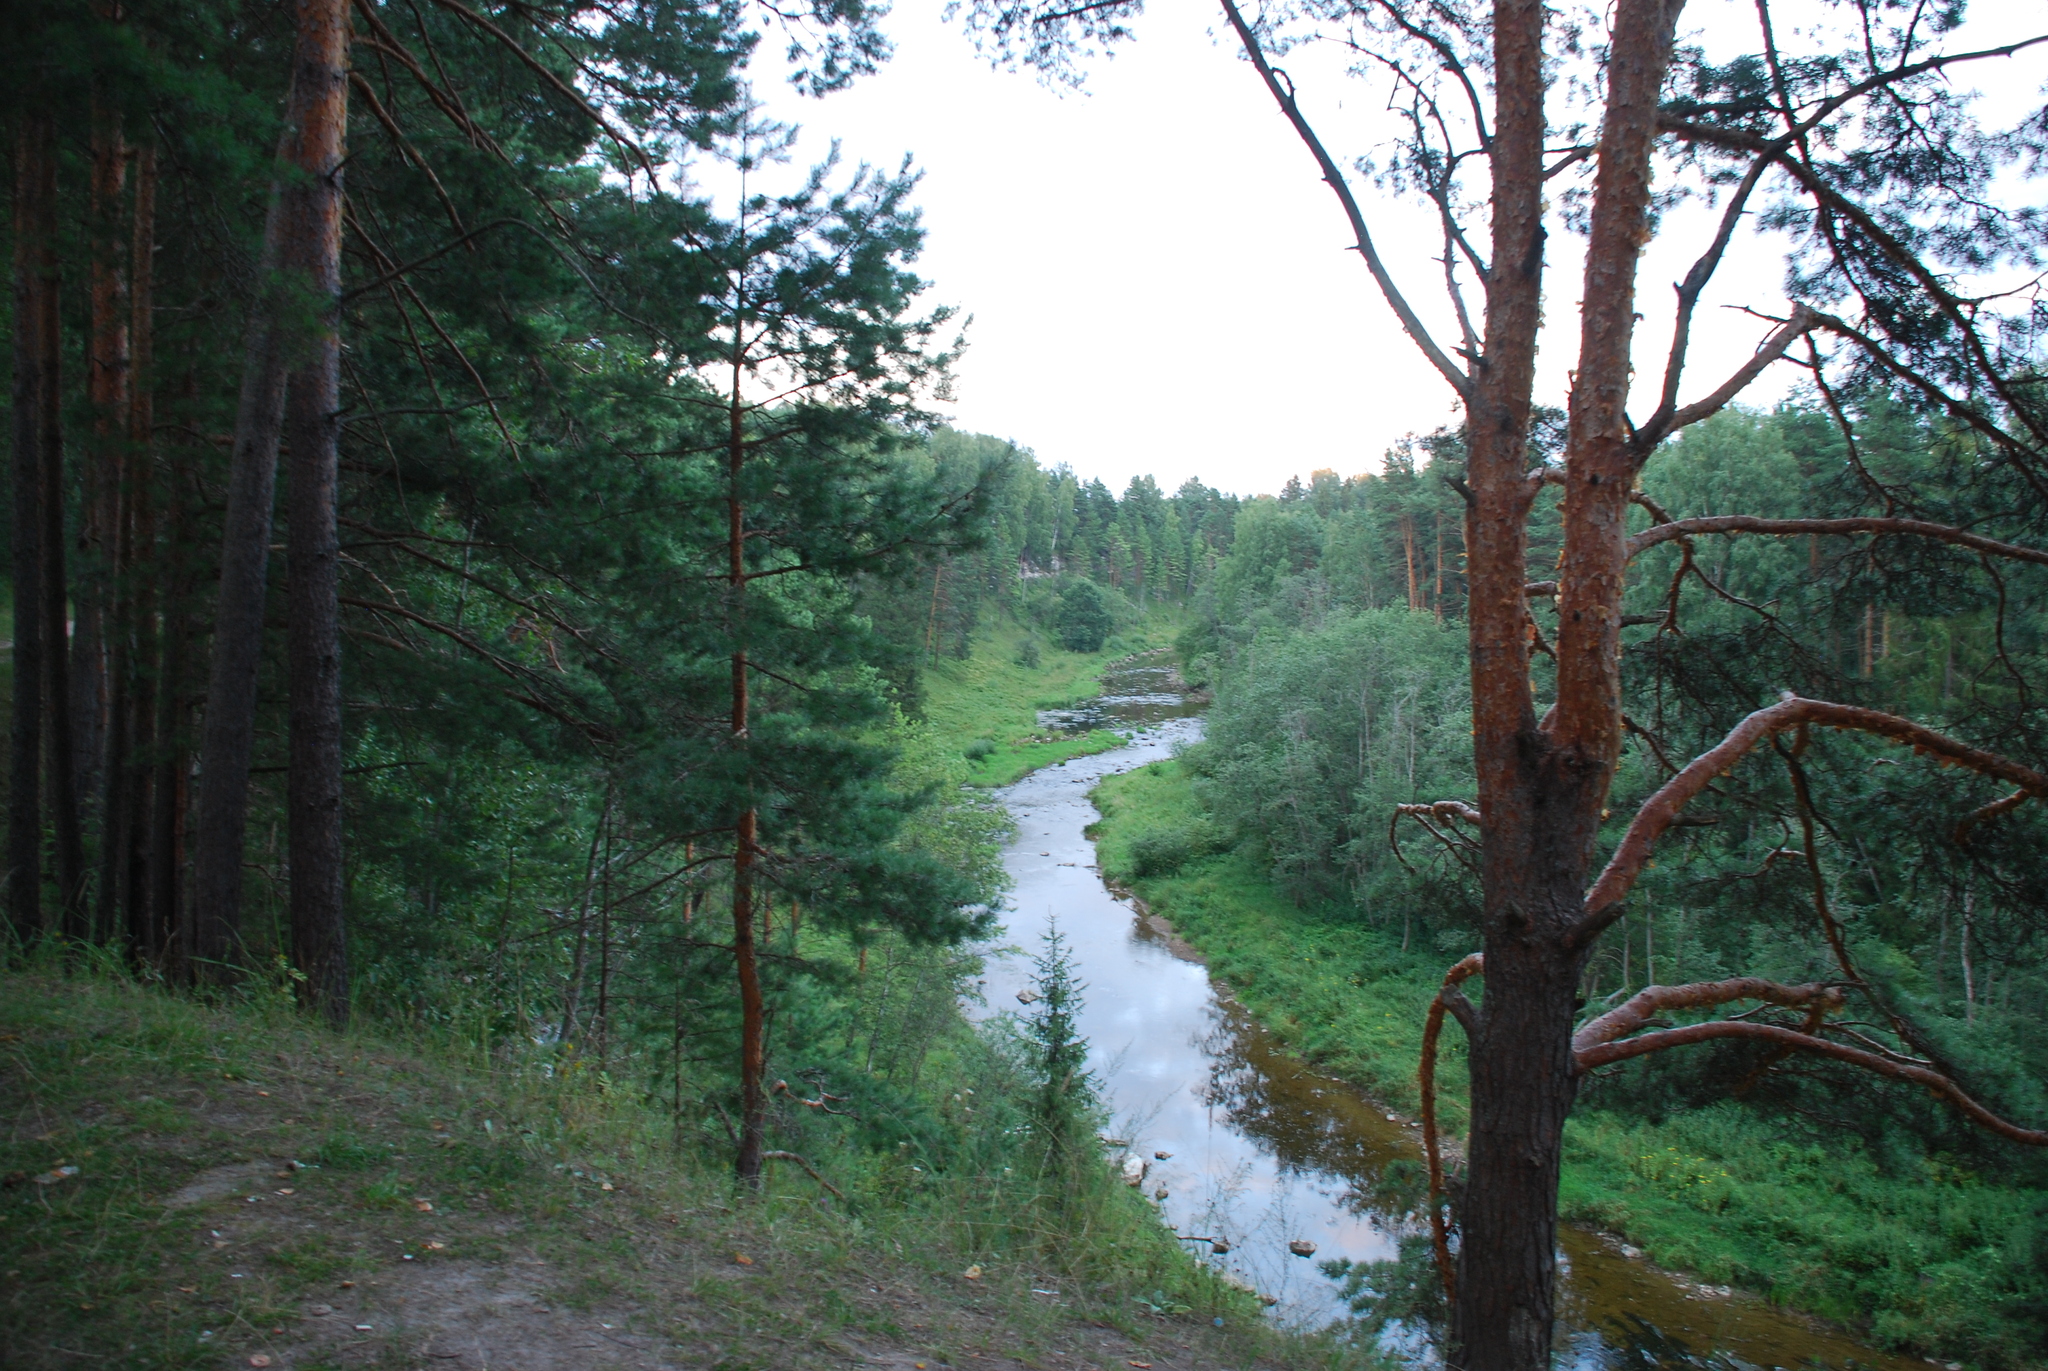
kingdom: Plantae
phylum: Tracheophyta
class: Pinopsida
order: Pinales
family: Pinaceae
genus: Pinus
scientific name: Pinus sylvestris
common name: Scots pine
